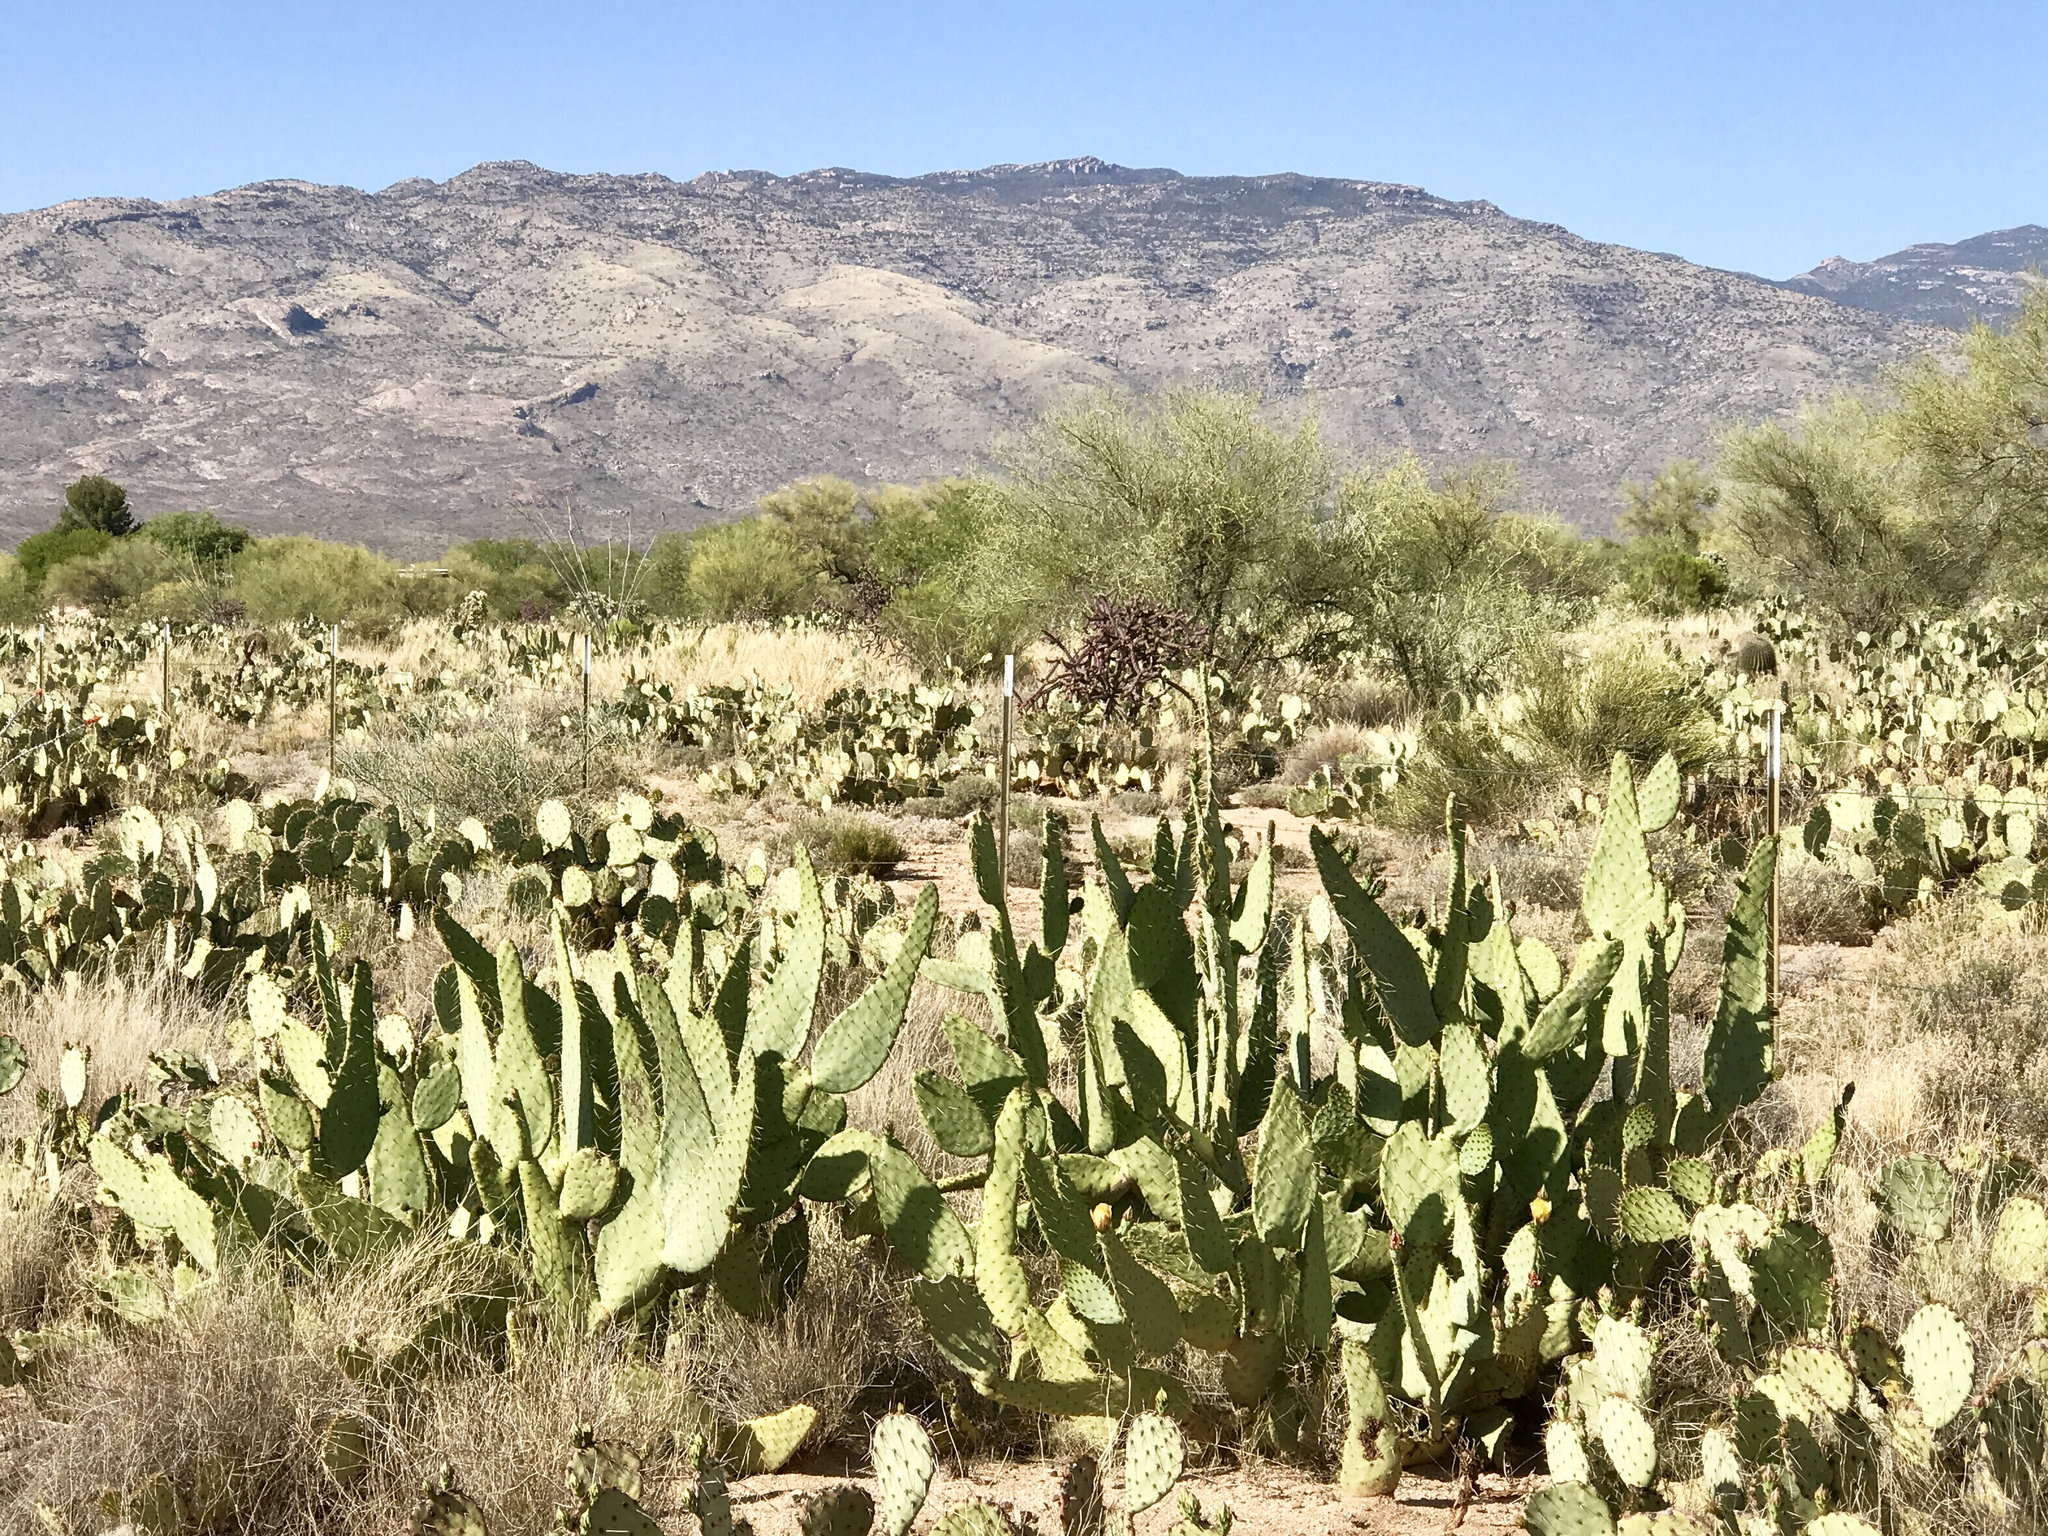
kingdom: Plantae
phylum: Tracheophyta
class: Magnoliopsida
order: Caryophyllales
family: Cactaceae
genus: Opuntia
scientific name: Opuntia engelmannii
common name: Cactus-apple
